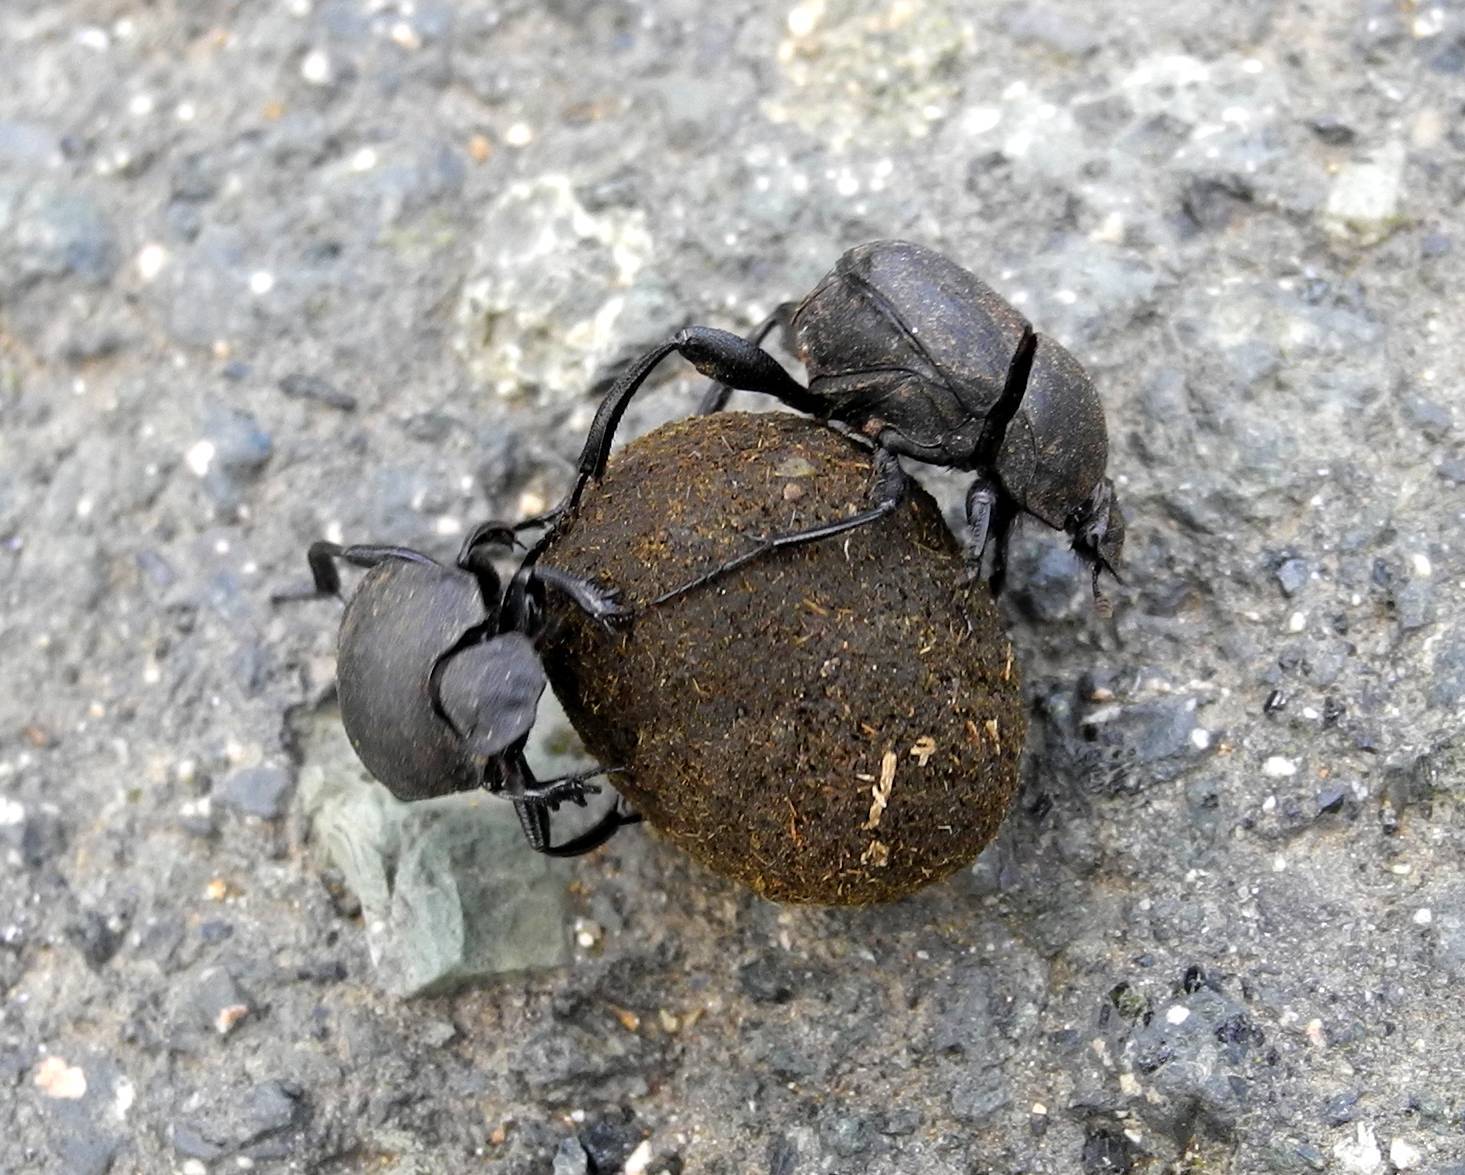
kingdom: Animalia
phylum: Arthropoda
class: Insecta
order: Coleoptera
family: Scarabaeidae
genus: Sisyphus
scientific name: Sisyphus schaefferi
